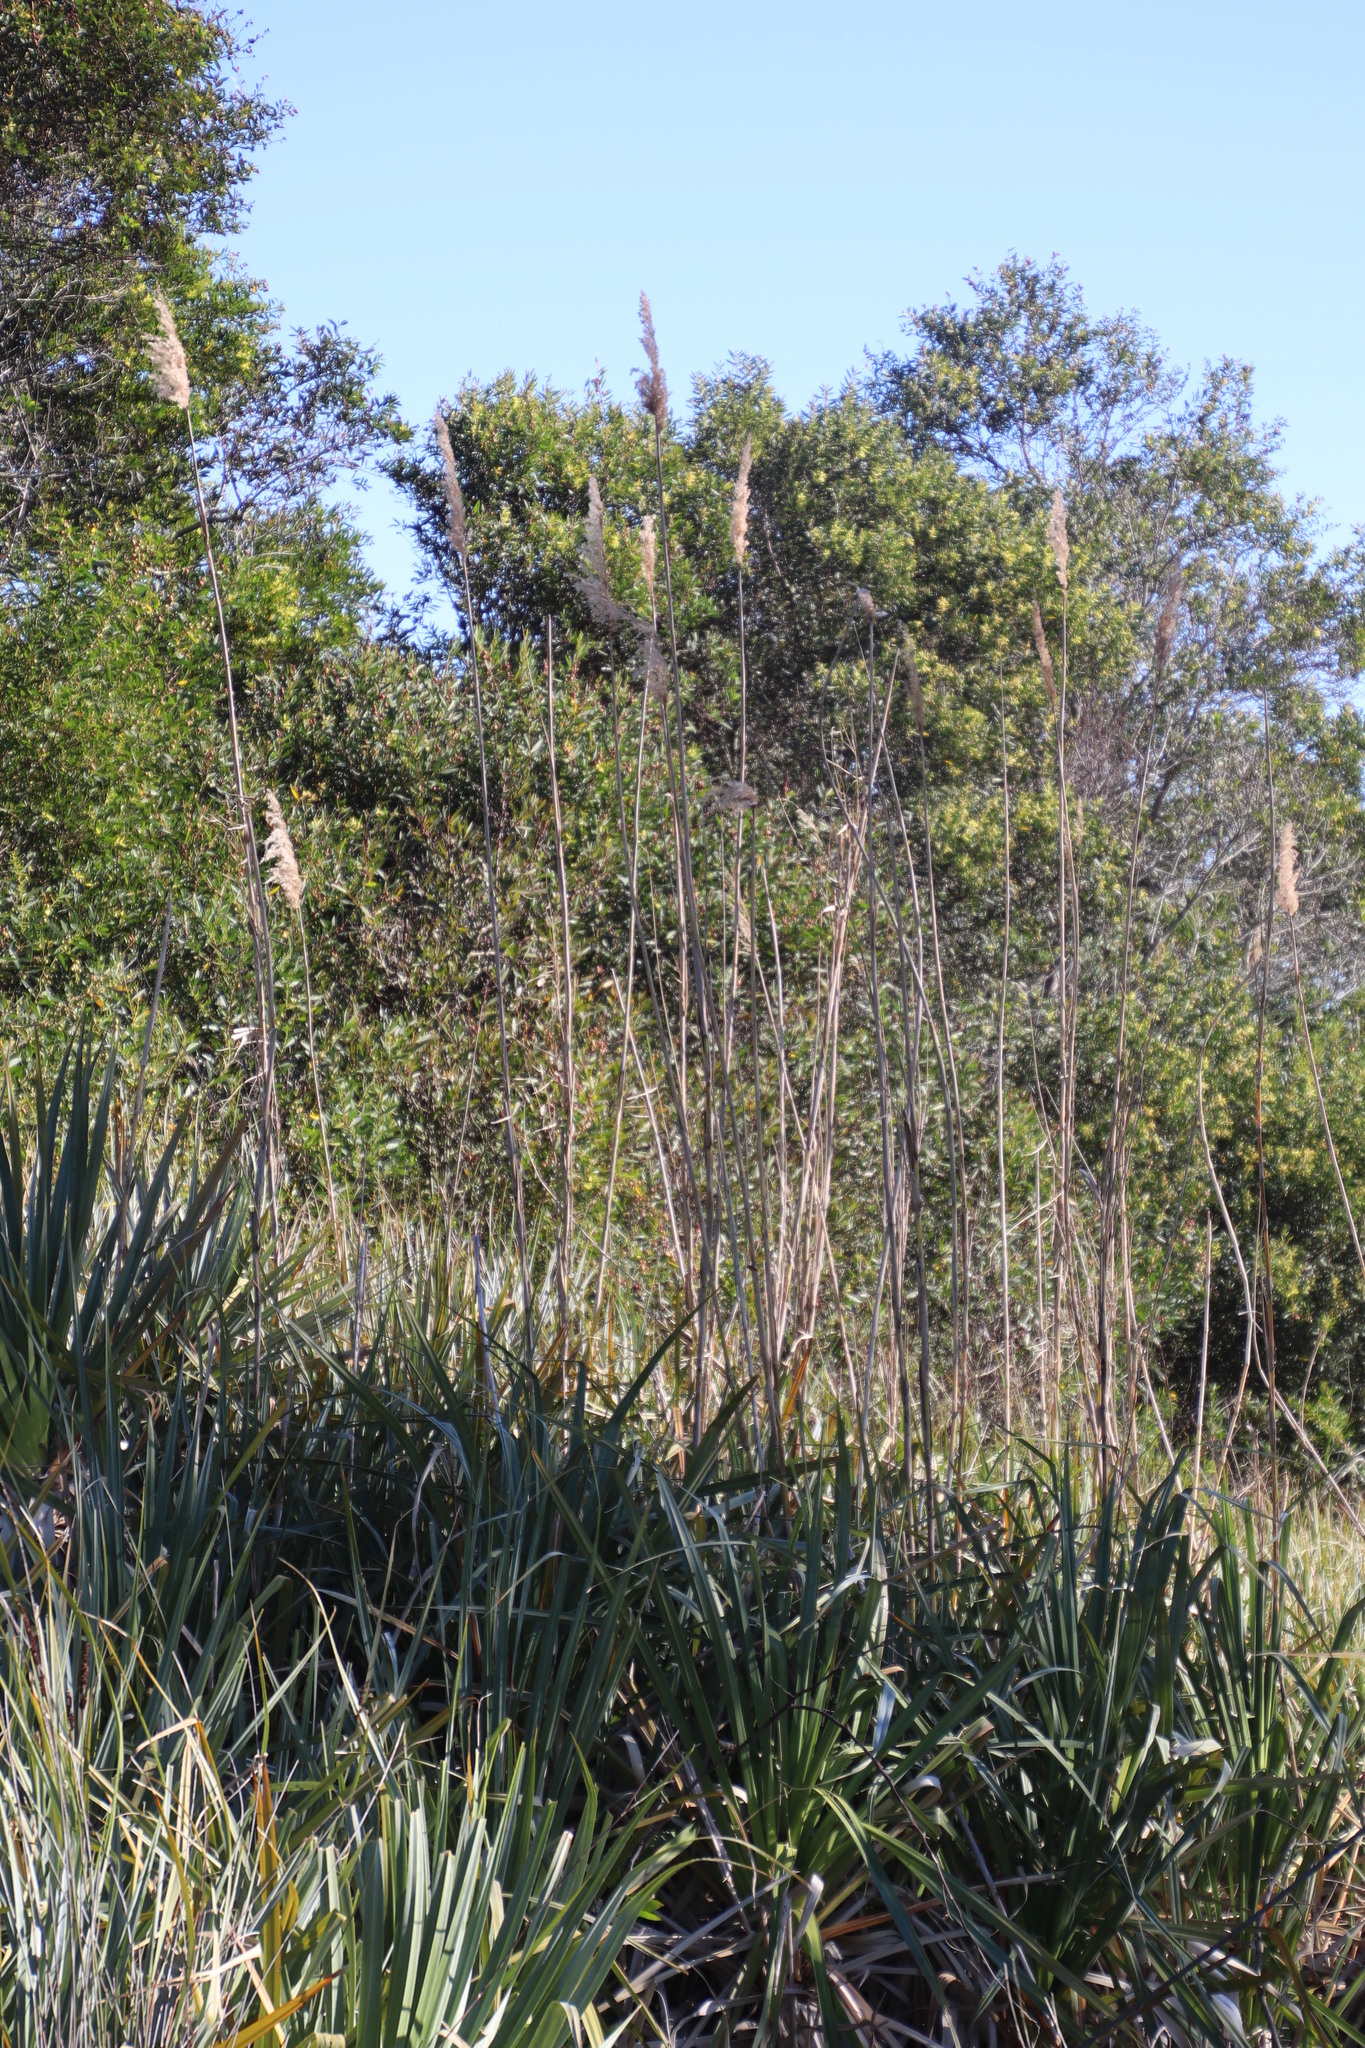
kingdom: Plantae
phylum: Tracheophyta
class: Liliopsida
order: Poales
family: Poaceae
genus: Phragmites
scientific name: Phragmites australis
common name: Common reed
